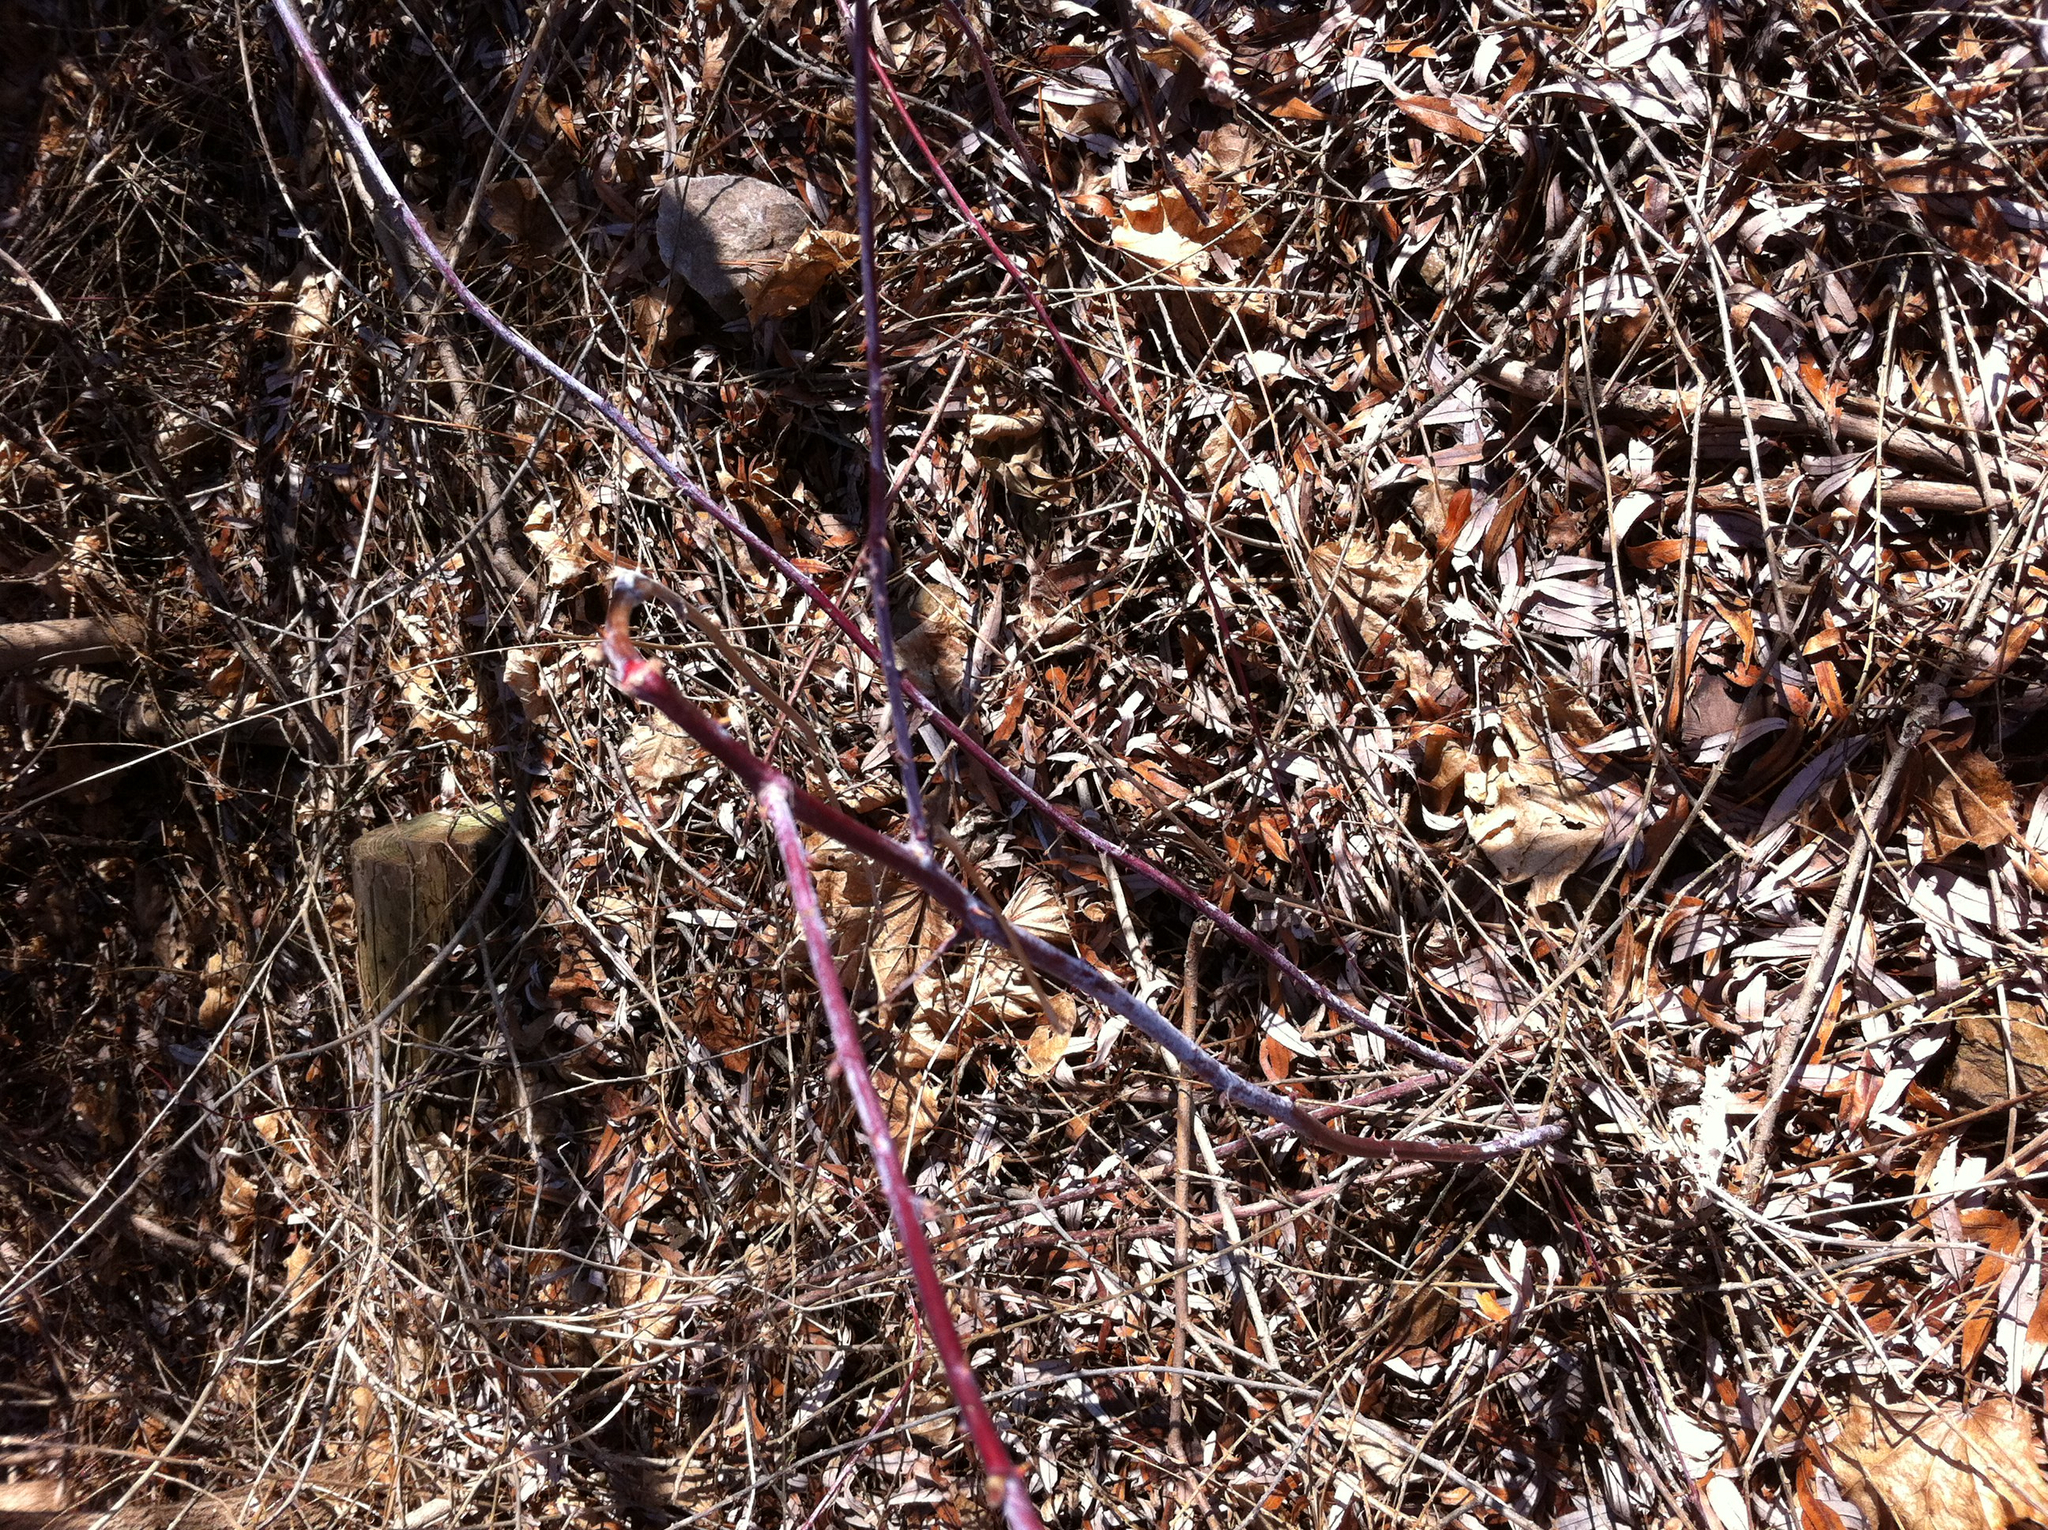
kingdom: Plantae
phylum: Tracheophyta
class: Magnoliopsida
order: Rosales
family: Rosaceae
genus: Rubus
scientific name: Rubus occidentalis
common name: Black raspberry
